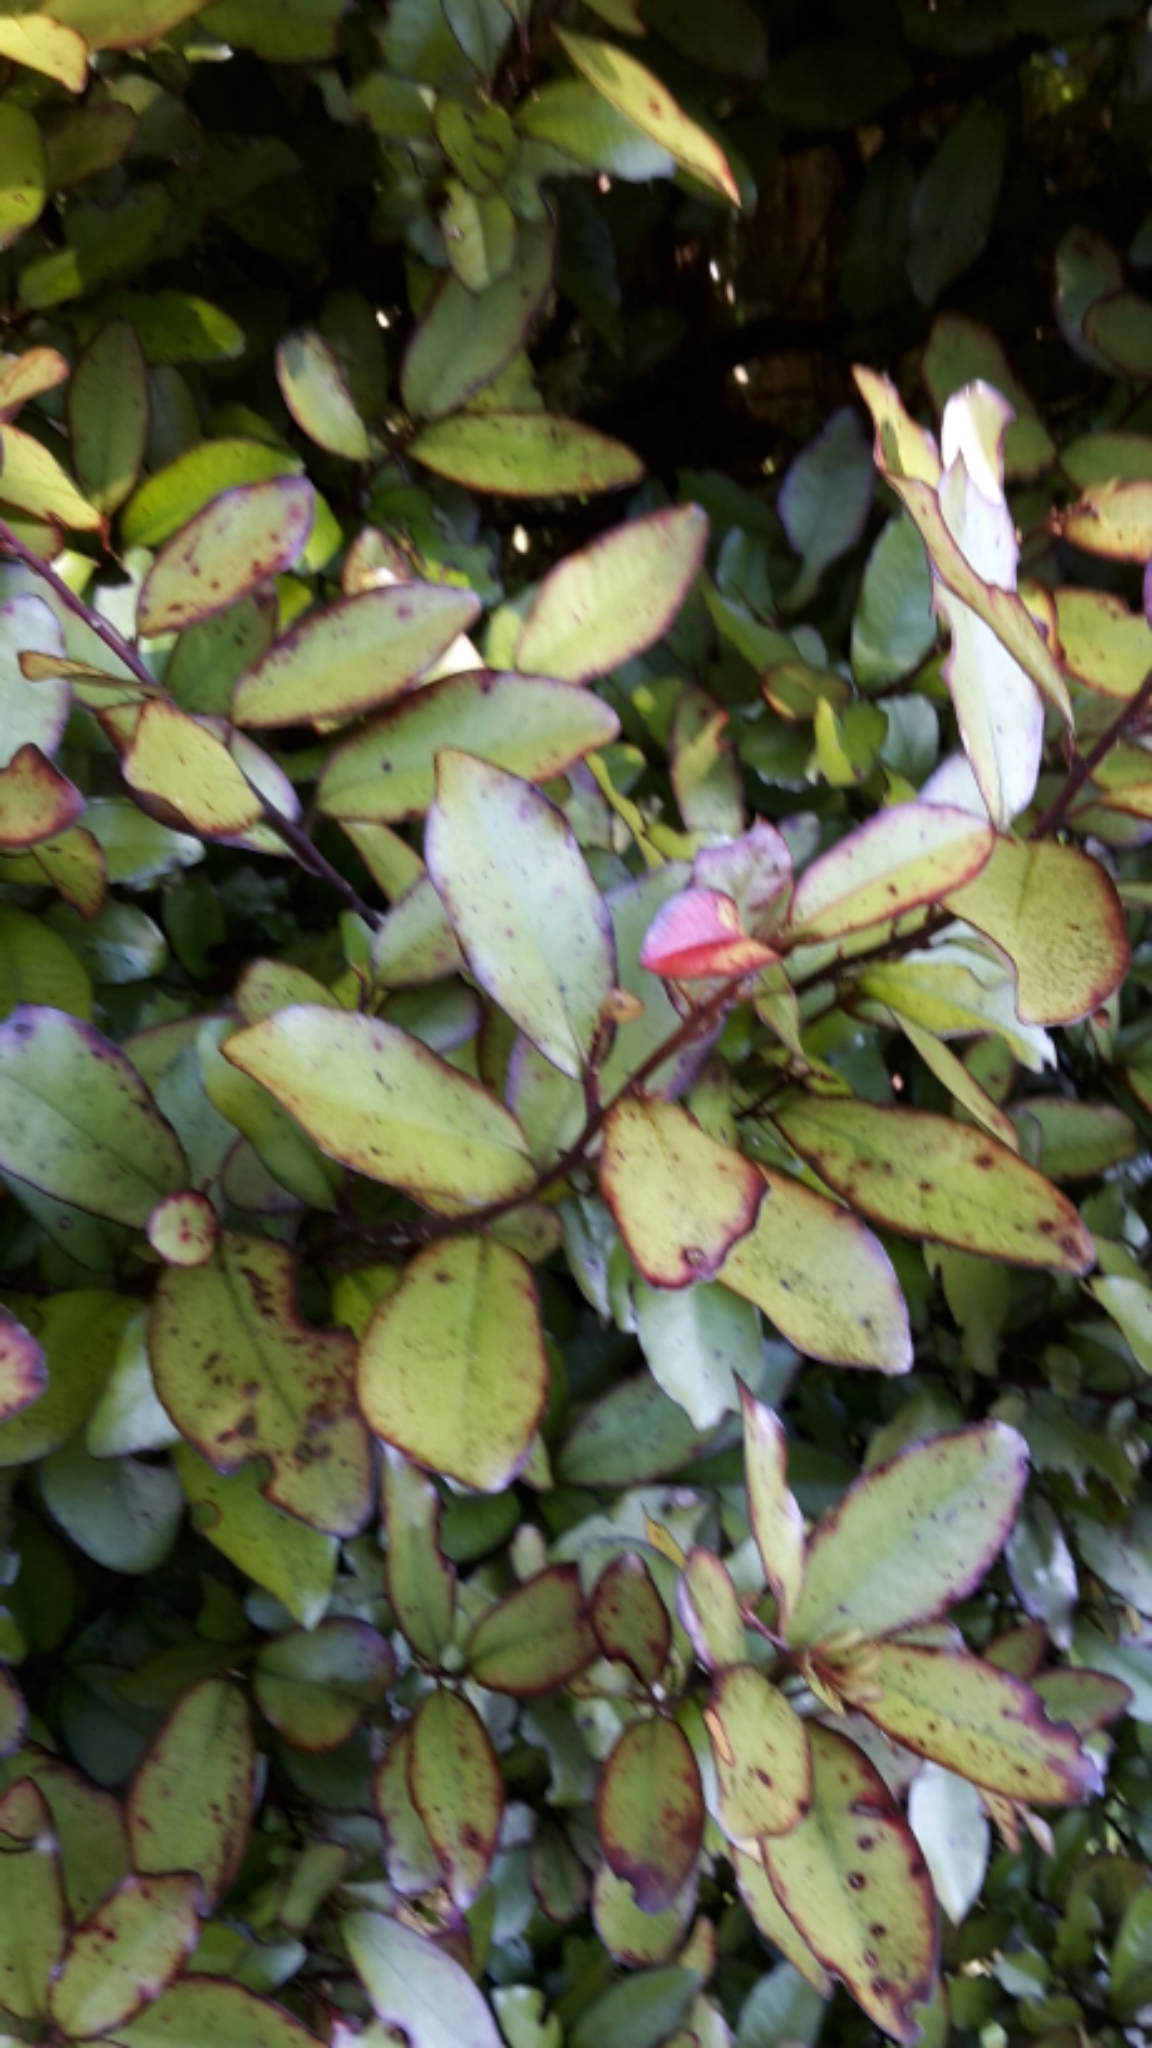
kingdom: Plantae
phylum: Tracheophyta
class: Magnoliopsida
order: Canellales
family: Winteraceae
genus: Pseudowintera
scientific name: Pseudowintera colorata
